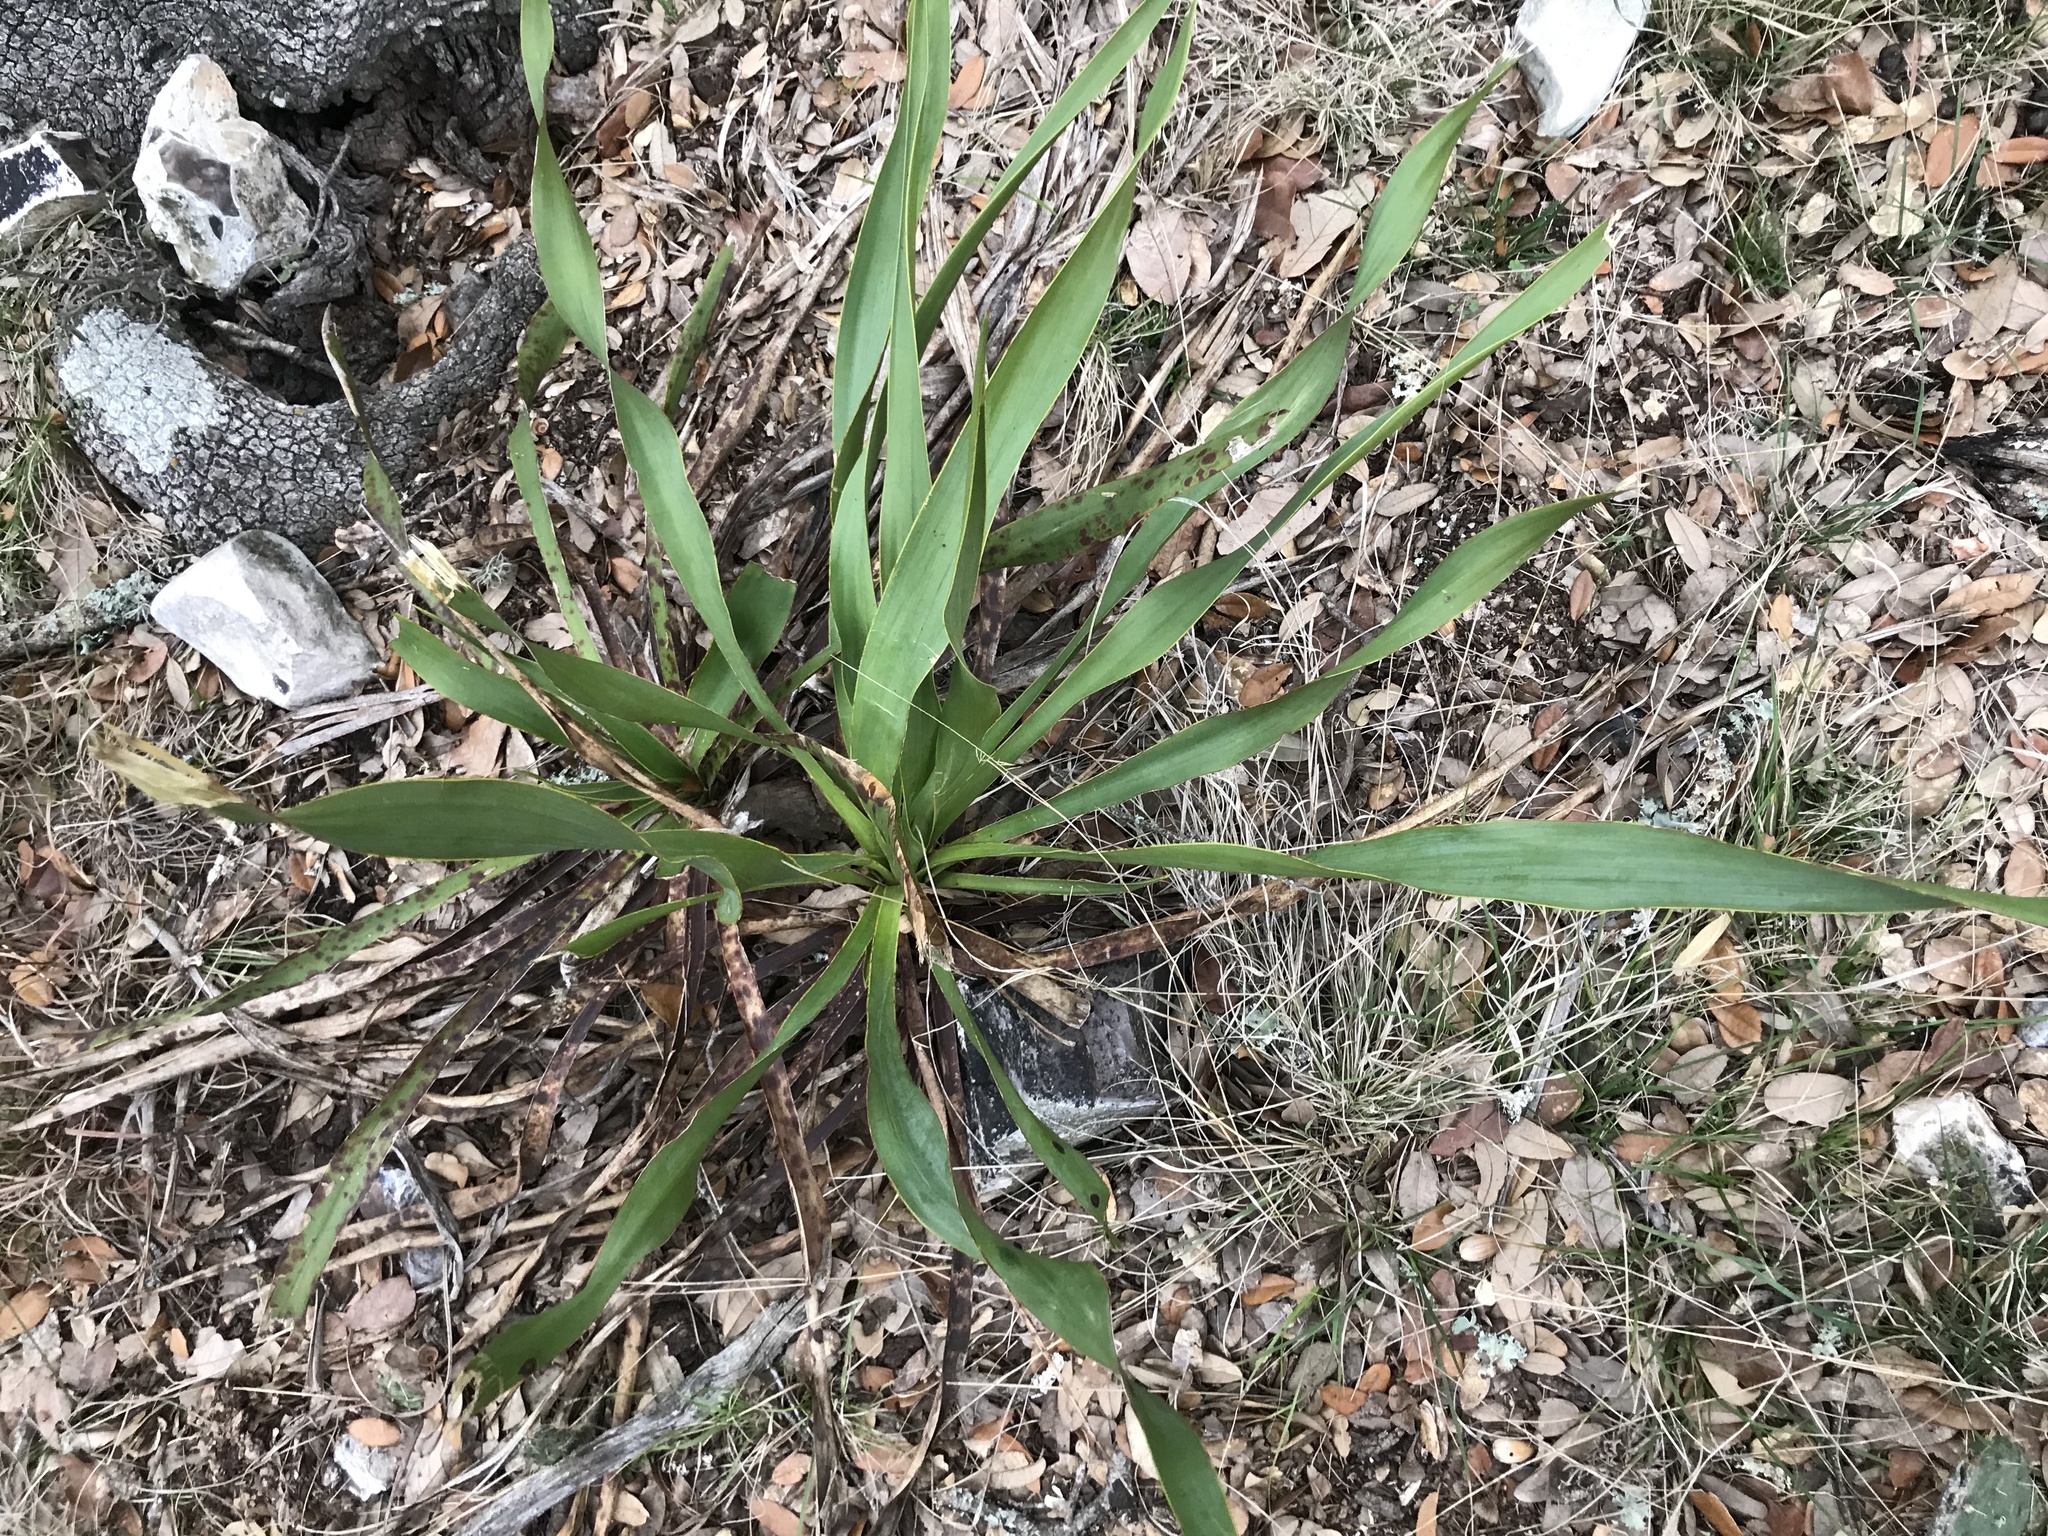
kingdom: Plantae
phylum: Tracheophyta
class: Liliopsida
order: Asparagales
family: Asparagaceae
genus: Yucca
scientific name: Yucca rupicola
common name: Twisted-leaf spanish-dagger
